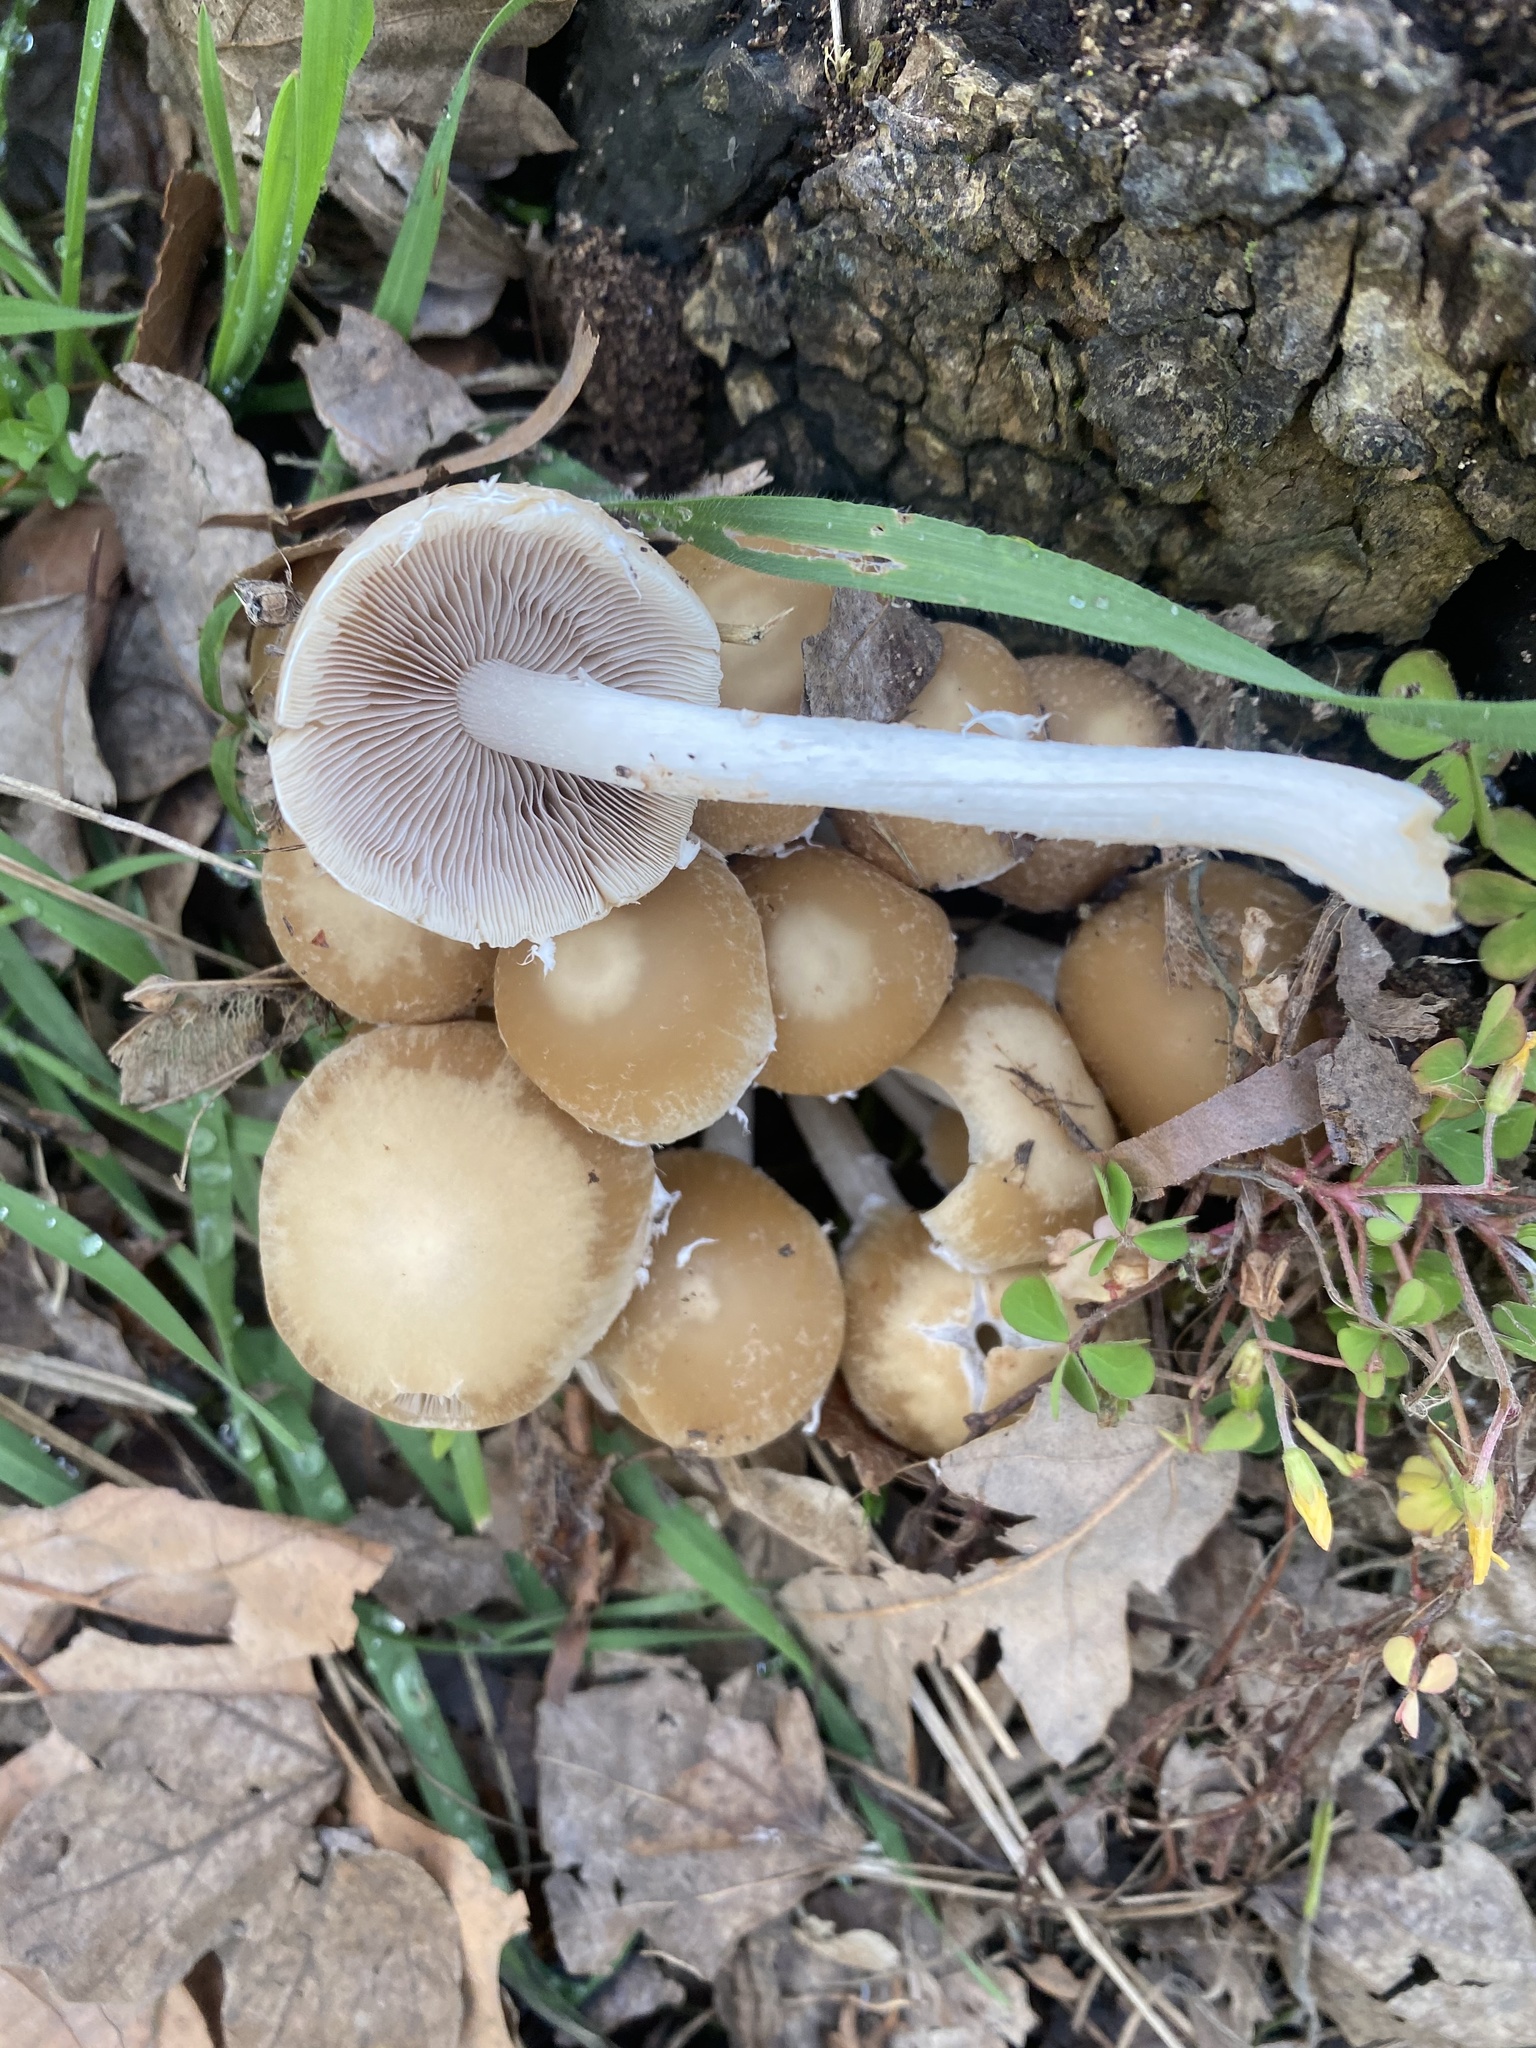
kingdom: Fungi
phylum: Basidiomycota
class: Agaricomycetes
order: Agaricales
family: Psathyrellaceae
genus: Candolleomyces
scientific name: Candolleomyces candolleanus
